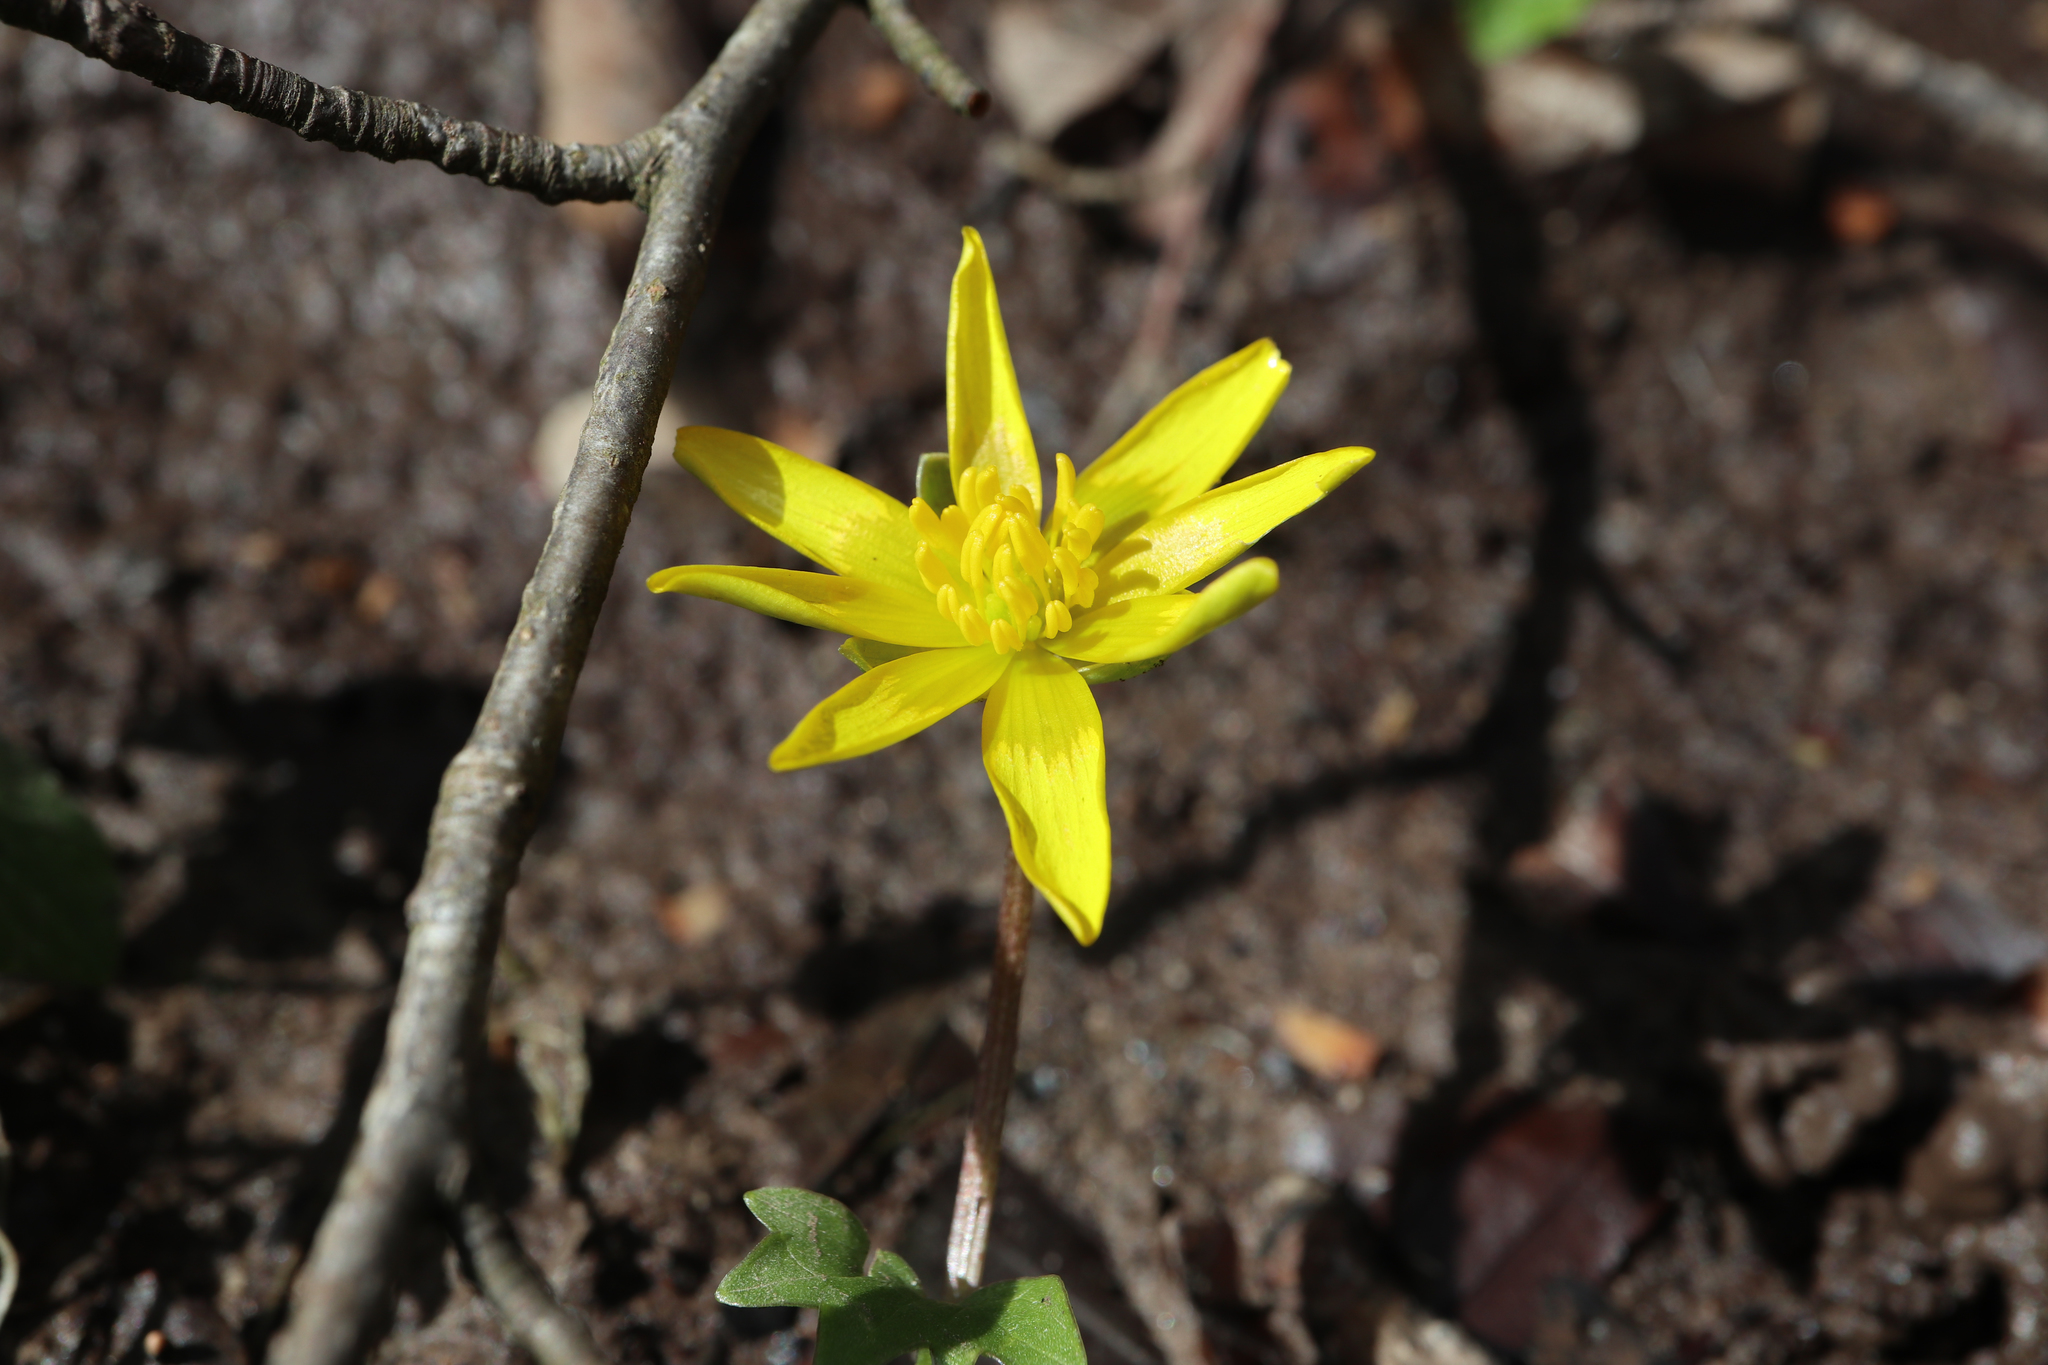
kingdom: Plantae
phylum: Tracheophyta
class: Magnoliopsida
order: Ranunculales
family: Ranunculaceae
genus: Ficaria
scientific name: Ficaria verna
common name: Lesser celandine
